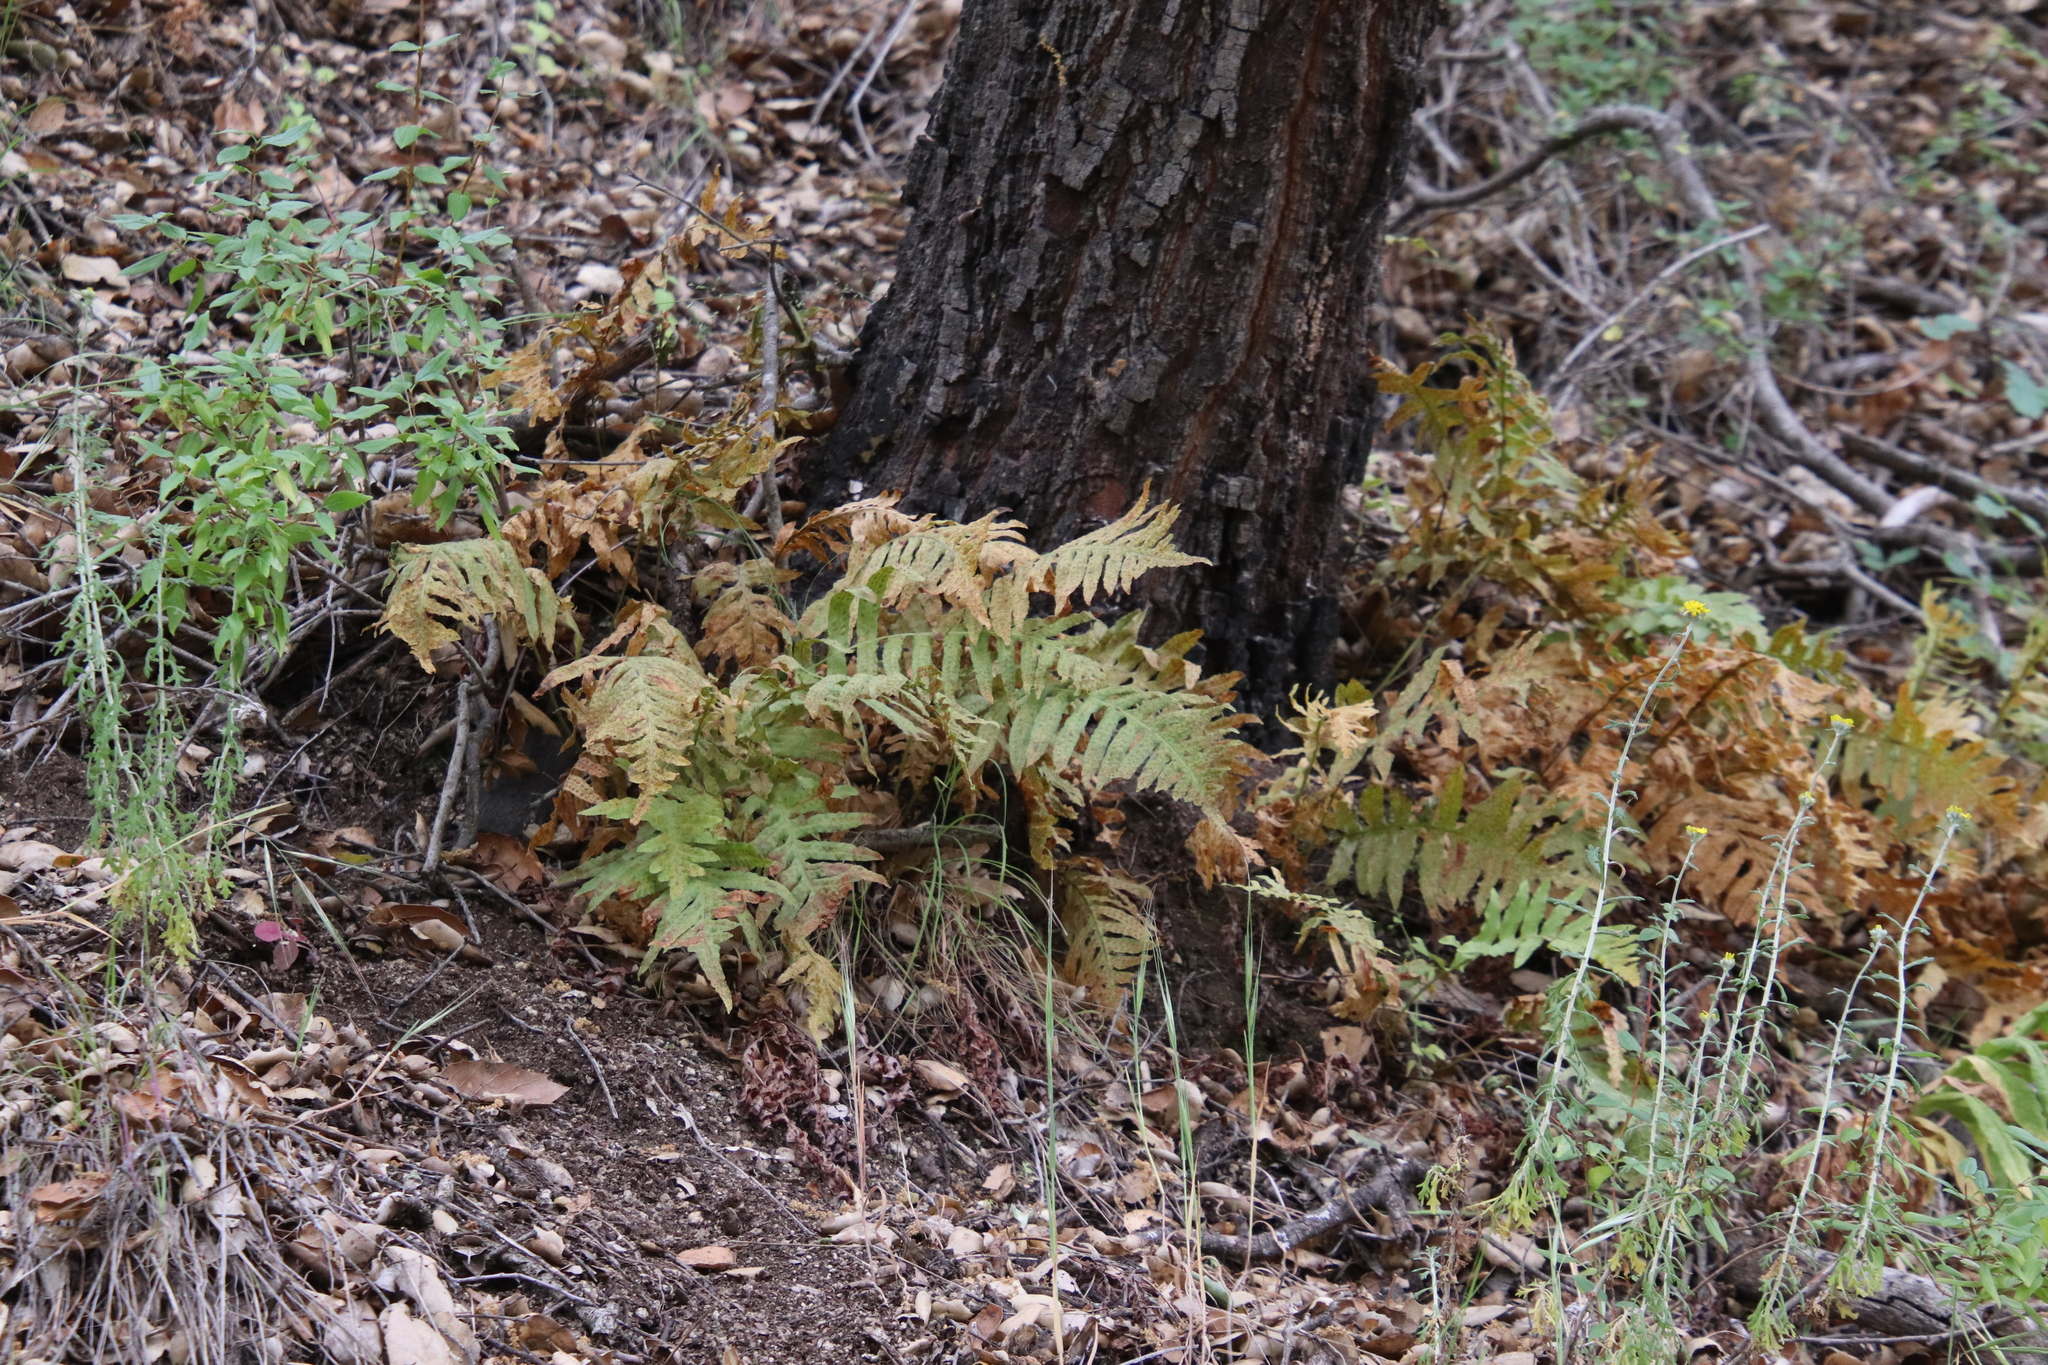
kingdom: Plantae
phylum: Tracheophyta
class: Polypodiopsida
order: Polypodiales
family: Polypodiaceae
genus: Polypodium
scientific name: Polypodium californicum
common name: California polypody
